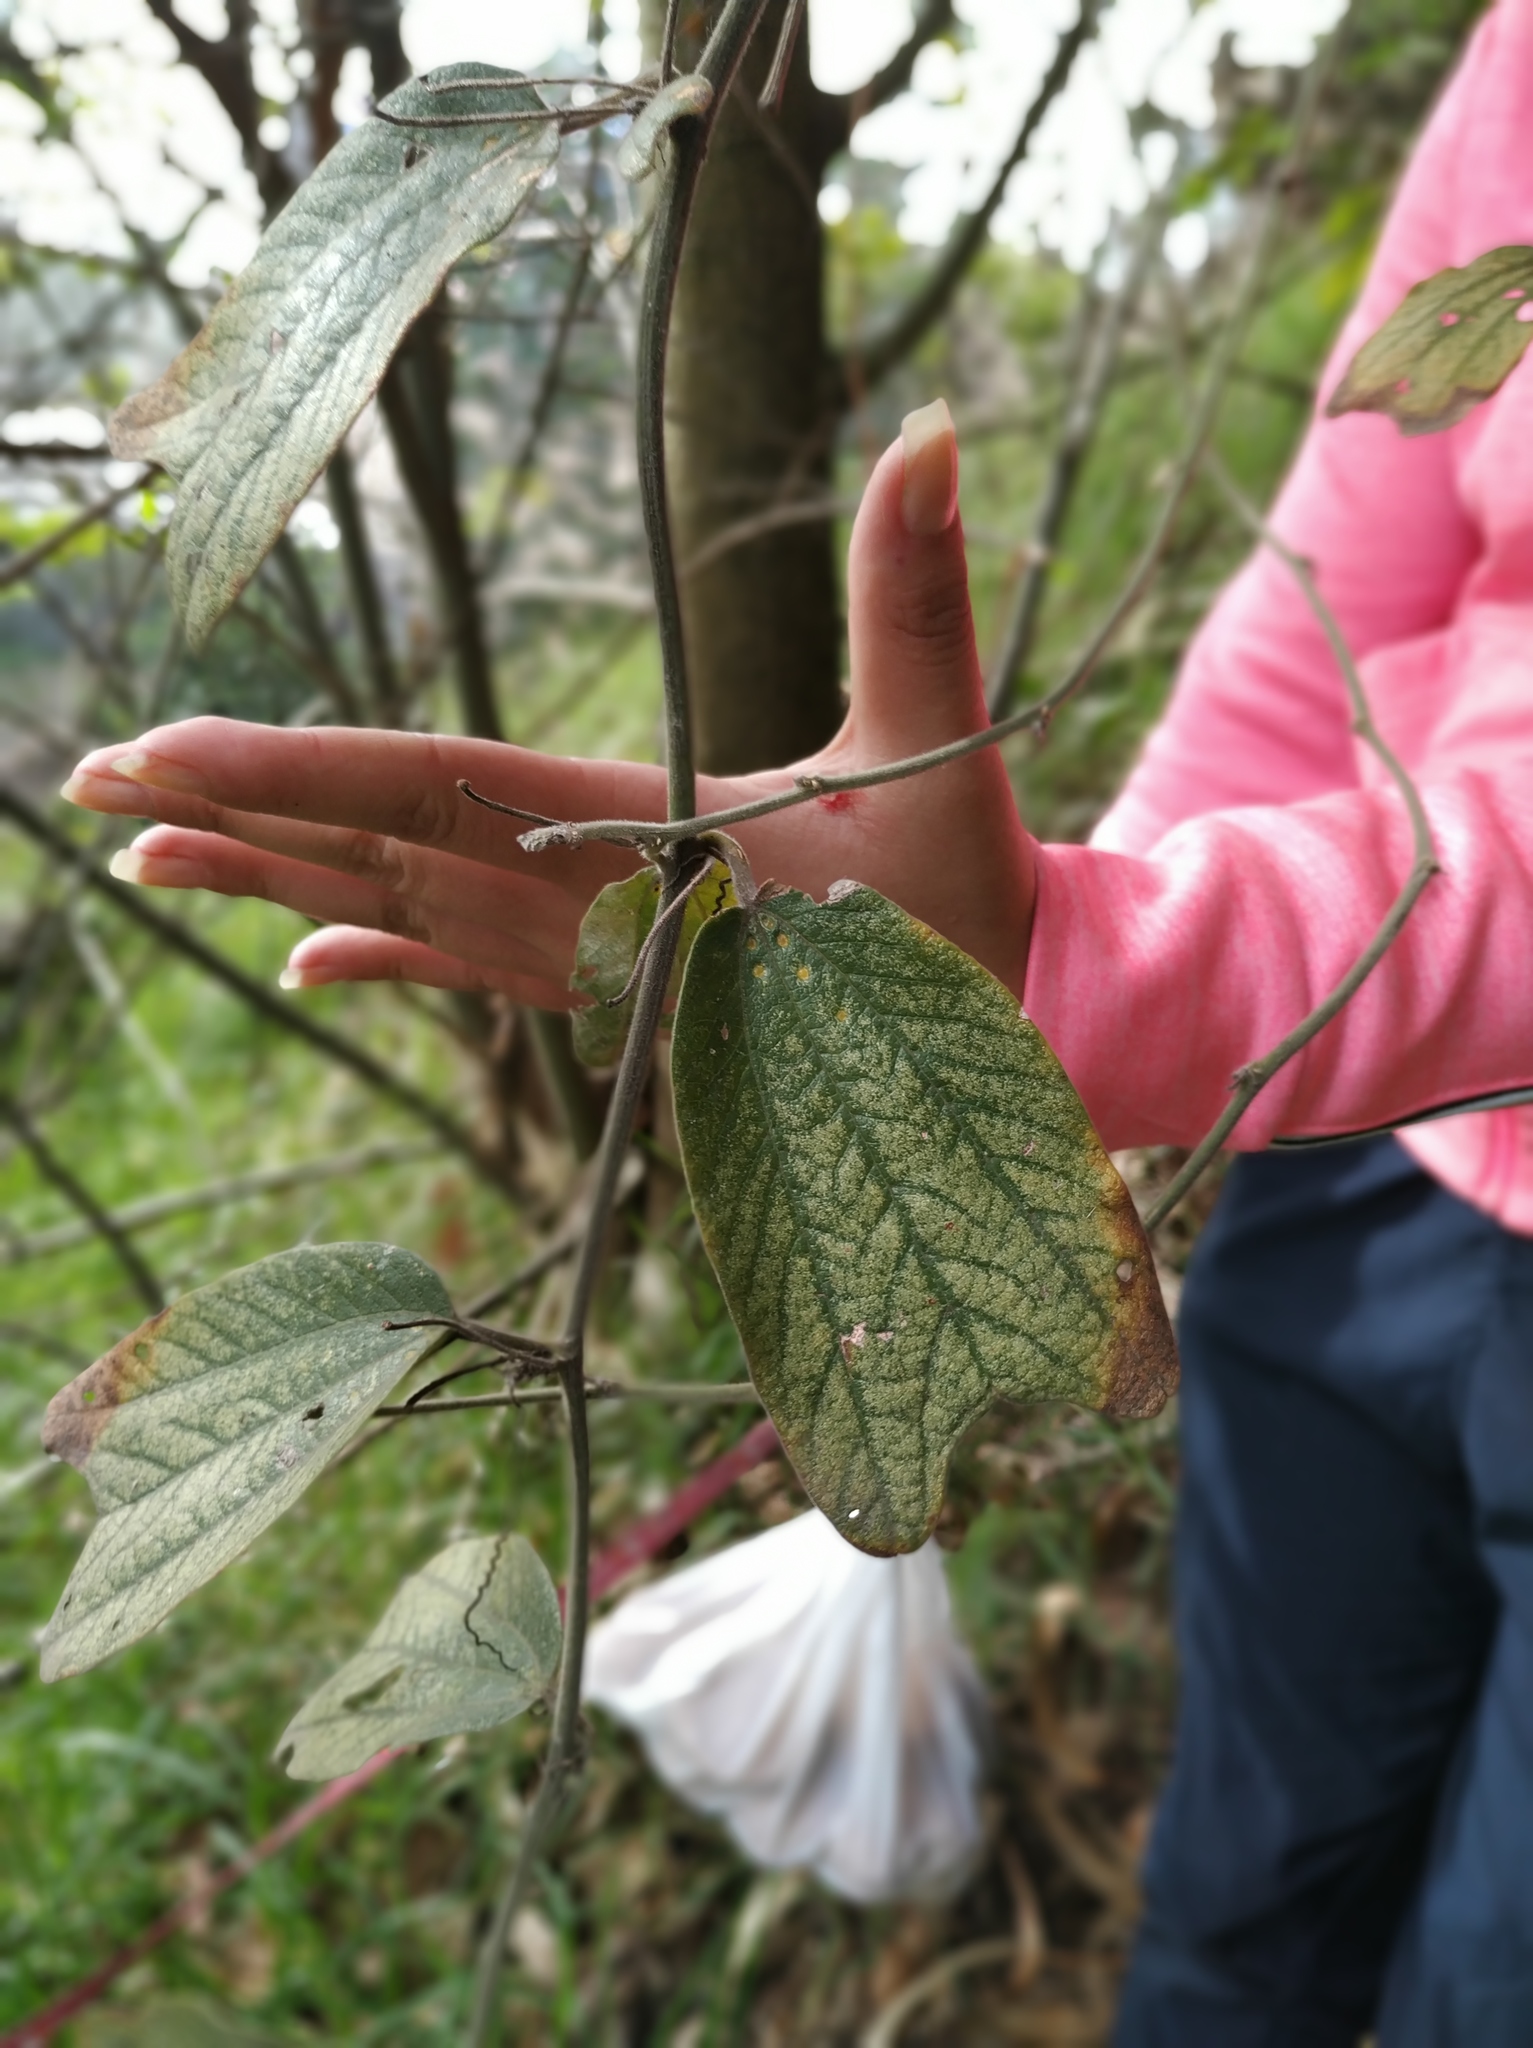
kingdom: Plantae
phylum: Tracheophyta
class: Magnoliopsida
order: Malpighiales
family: Passifloraceae
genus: Passiflora
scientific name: Passiflora bogotensis
